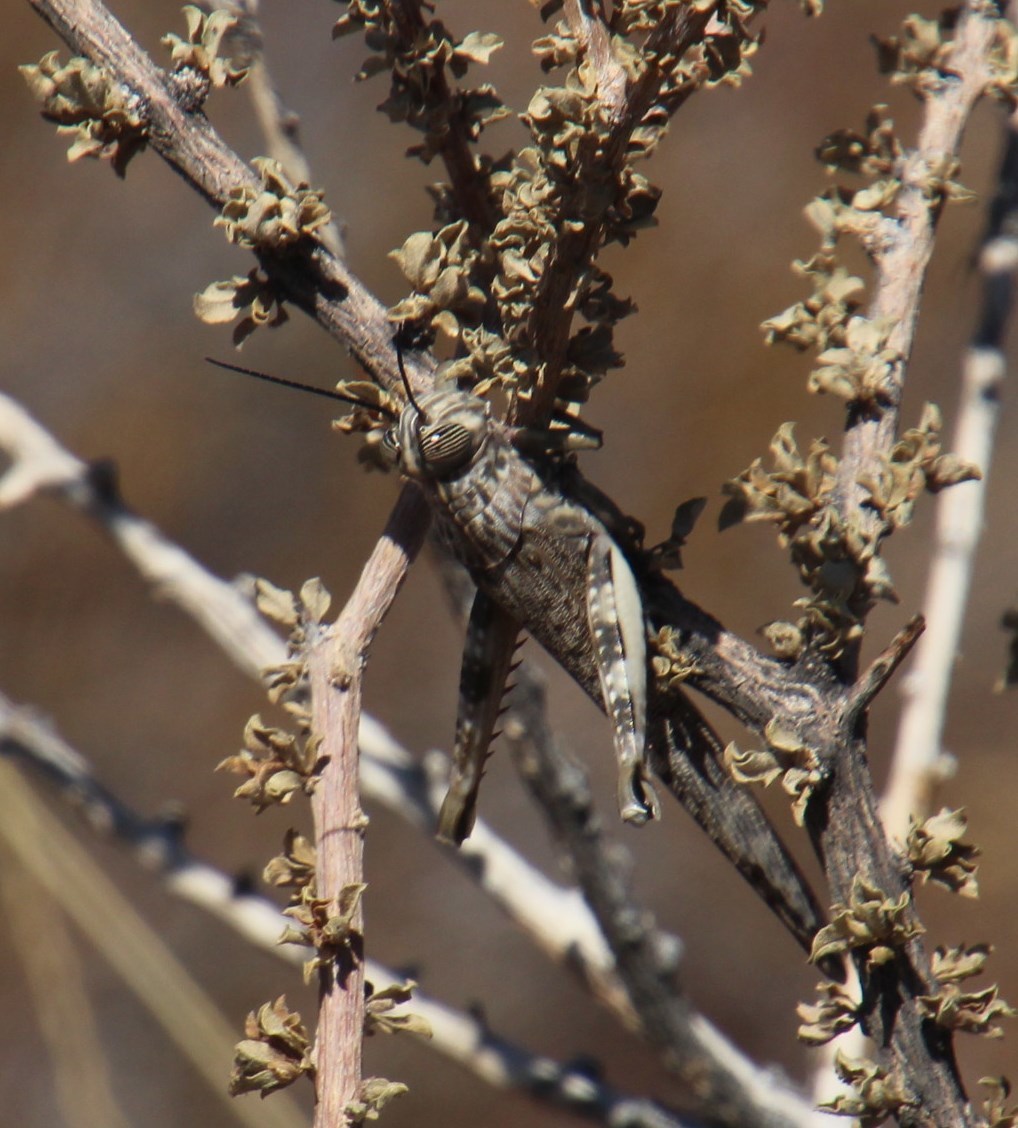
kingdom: Animalia
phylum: Arthropoda
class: Insecta
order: Orthoptera
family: Acrididae
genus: Anacridium
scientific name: Anacridium moestum
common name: Tree locust
